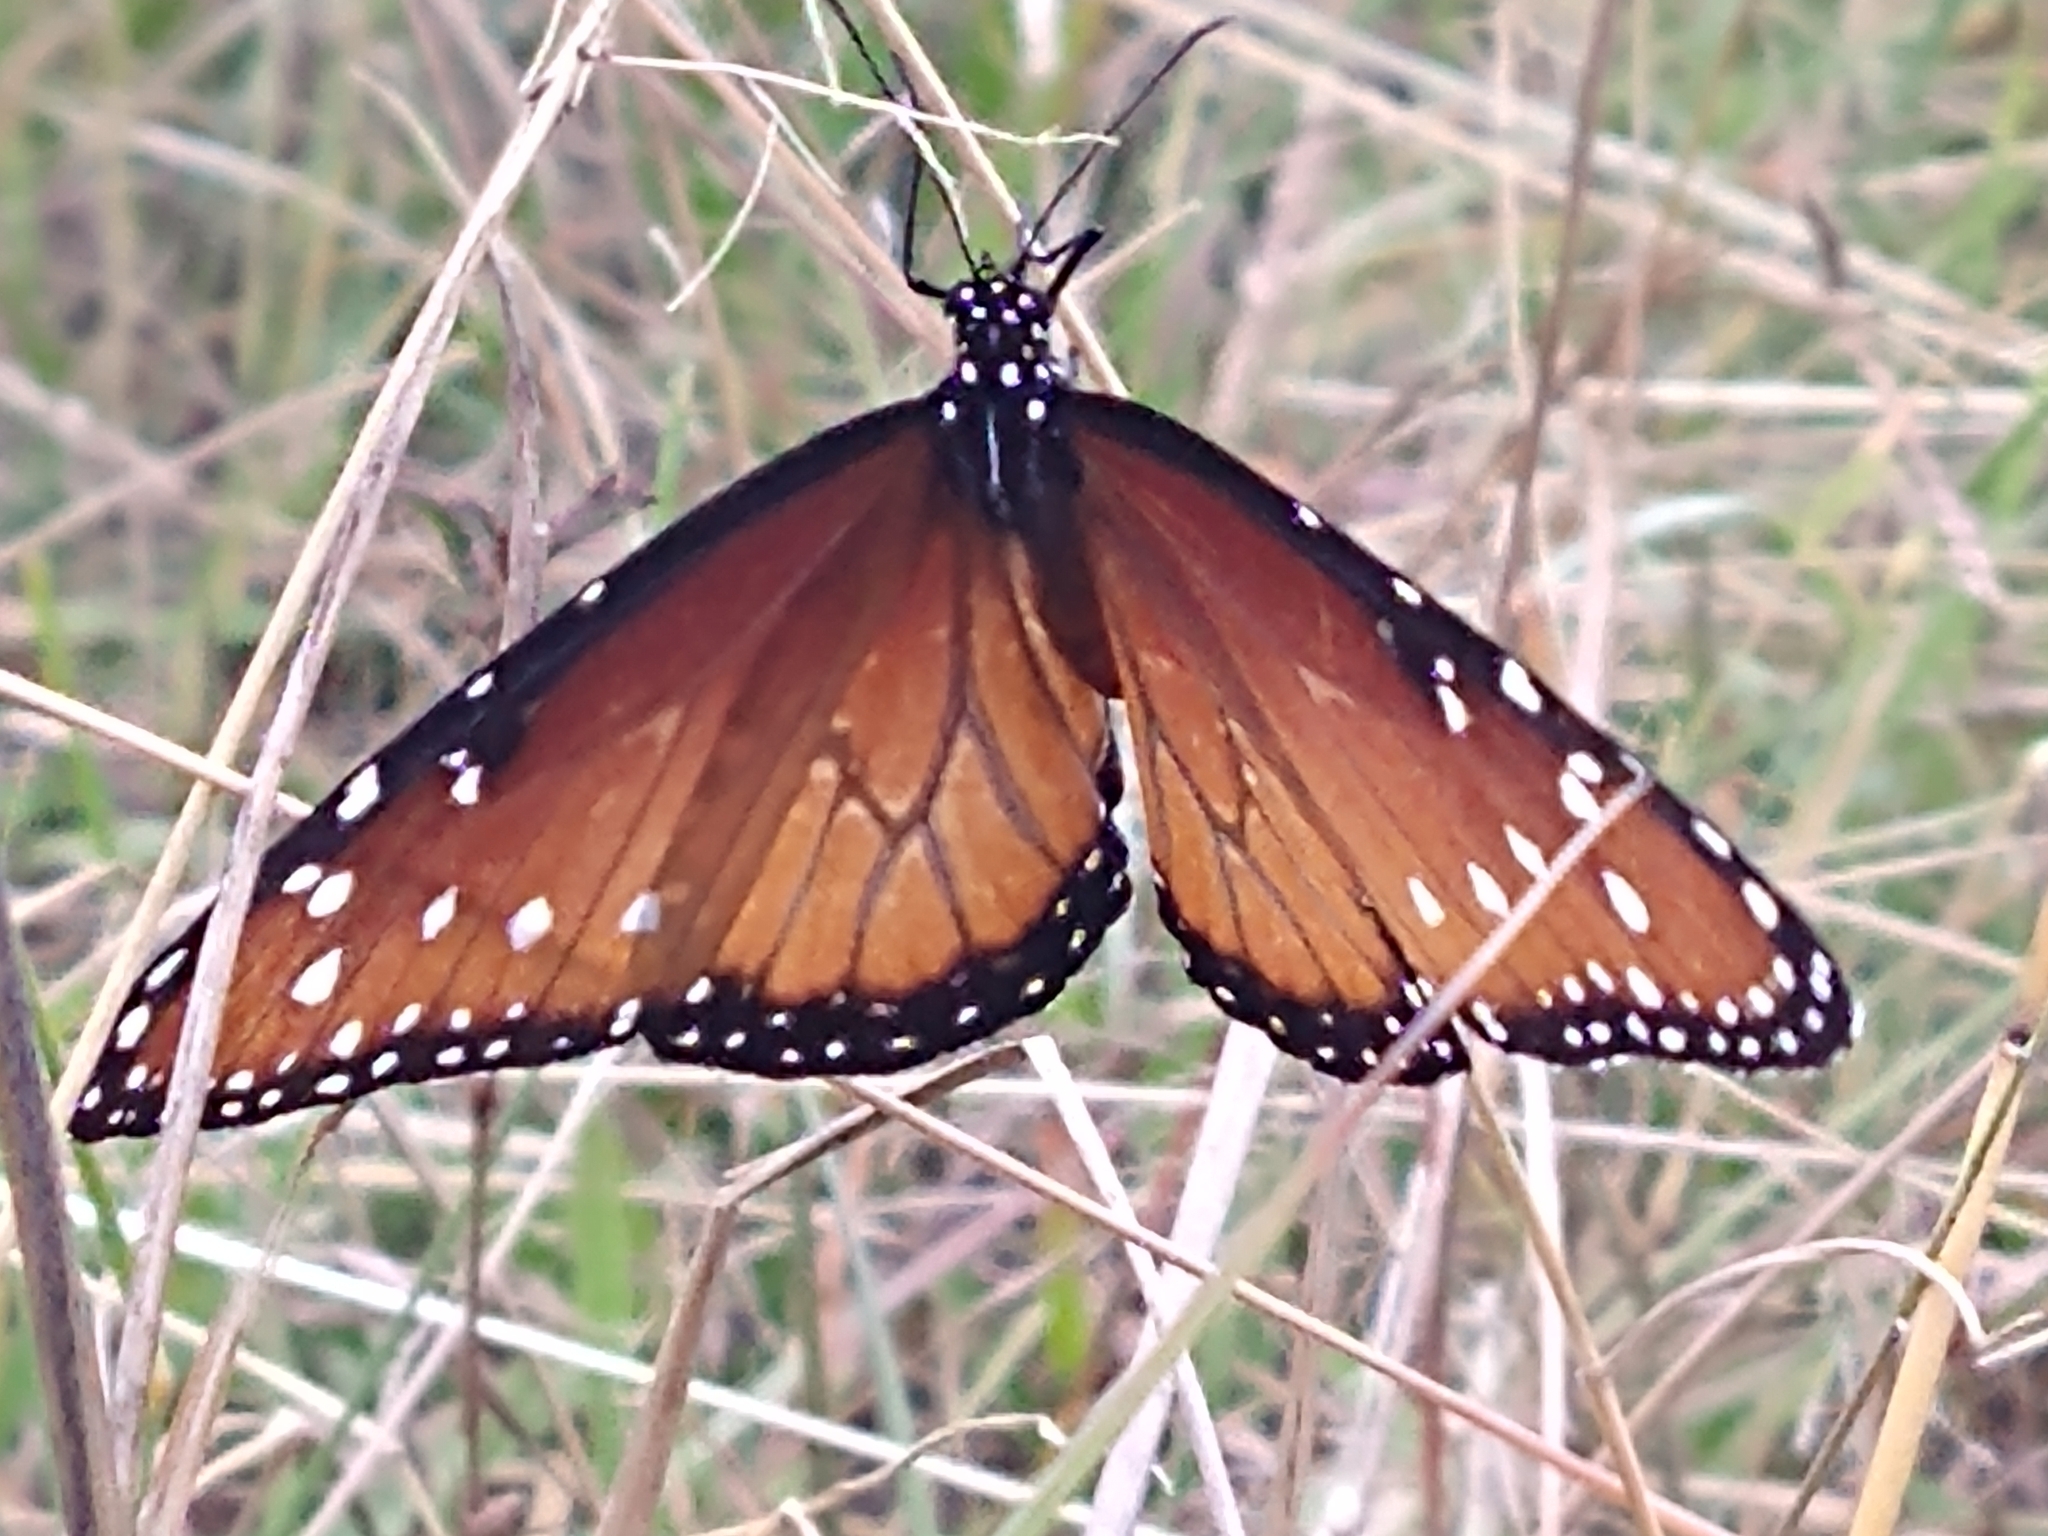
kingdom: Animalia
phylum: Arthropoda
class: Insecta
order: Lepidoptera
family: Nymphalidae
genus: Danaus
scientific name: Danaus gilippus
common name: Queen
